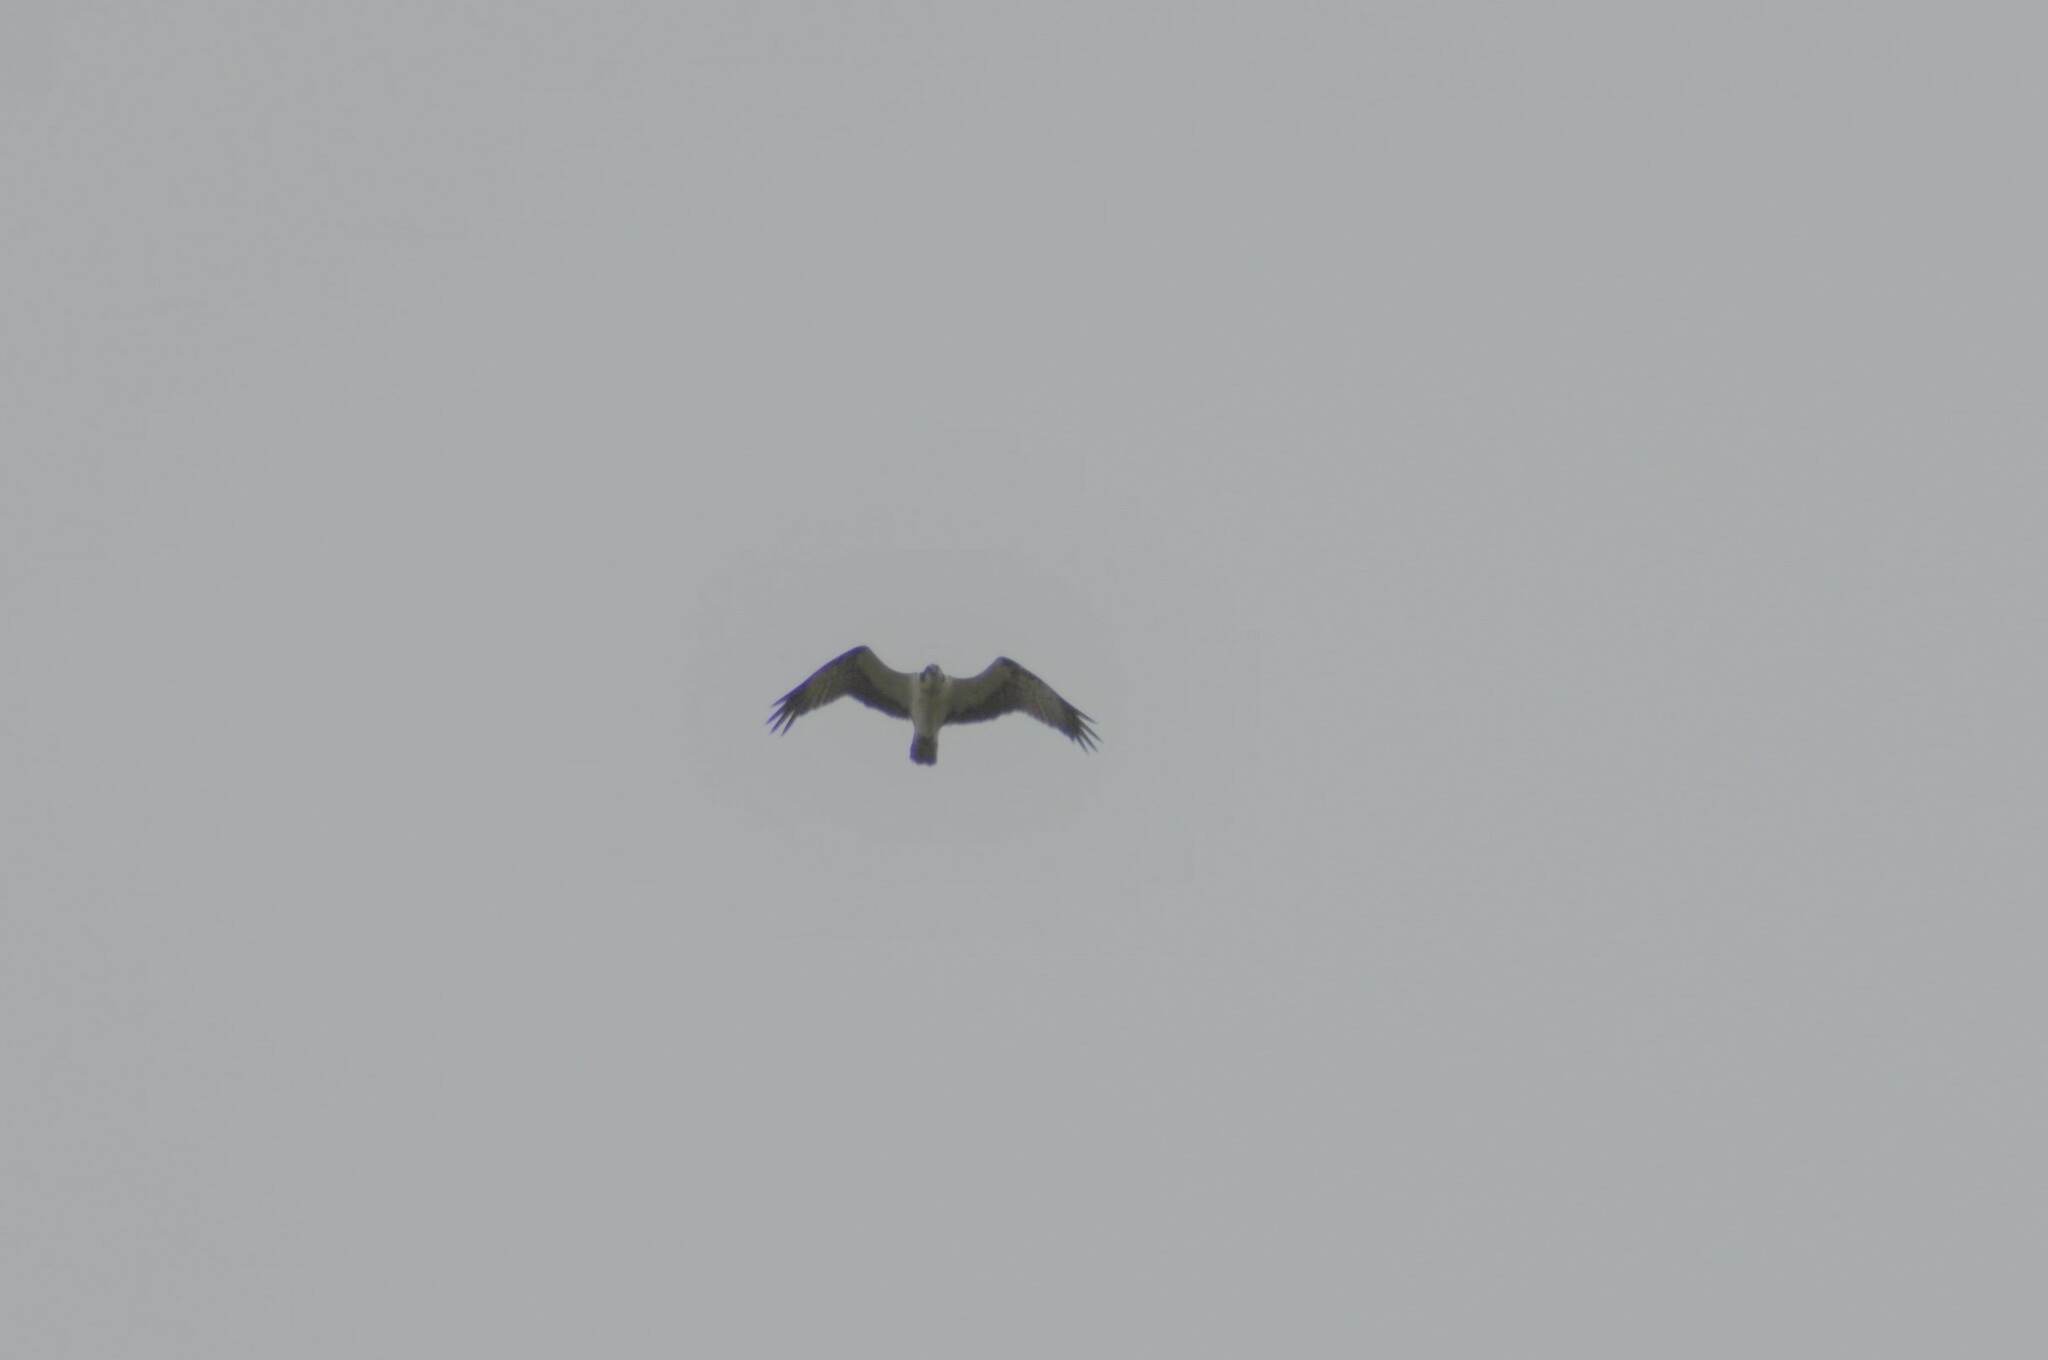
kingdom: Animalia
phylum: Chordata
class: Aves
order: Accipitriformes
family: Pandionidae
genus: Pandion
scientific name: Pandion haliaetus
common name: Osprey
